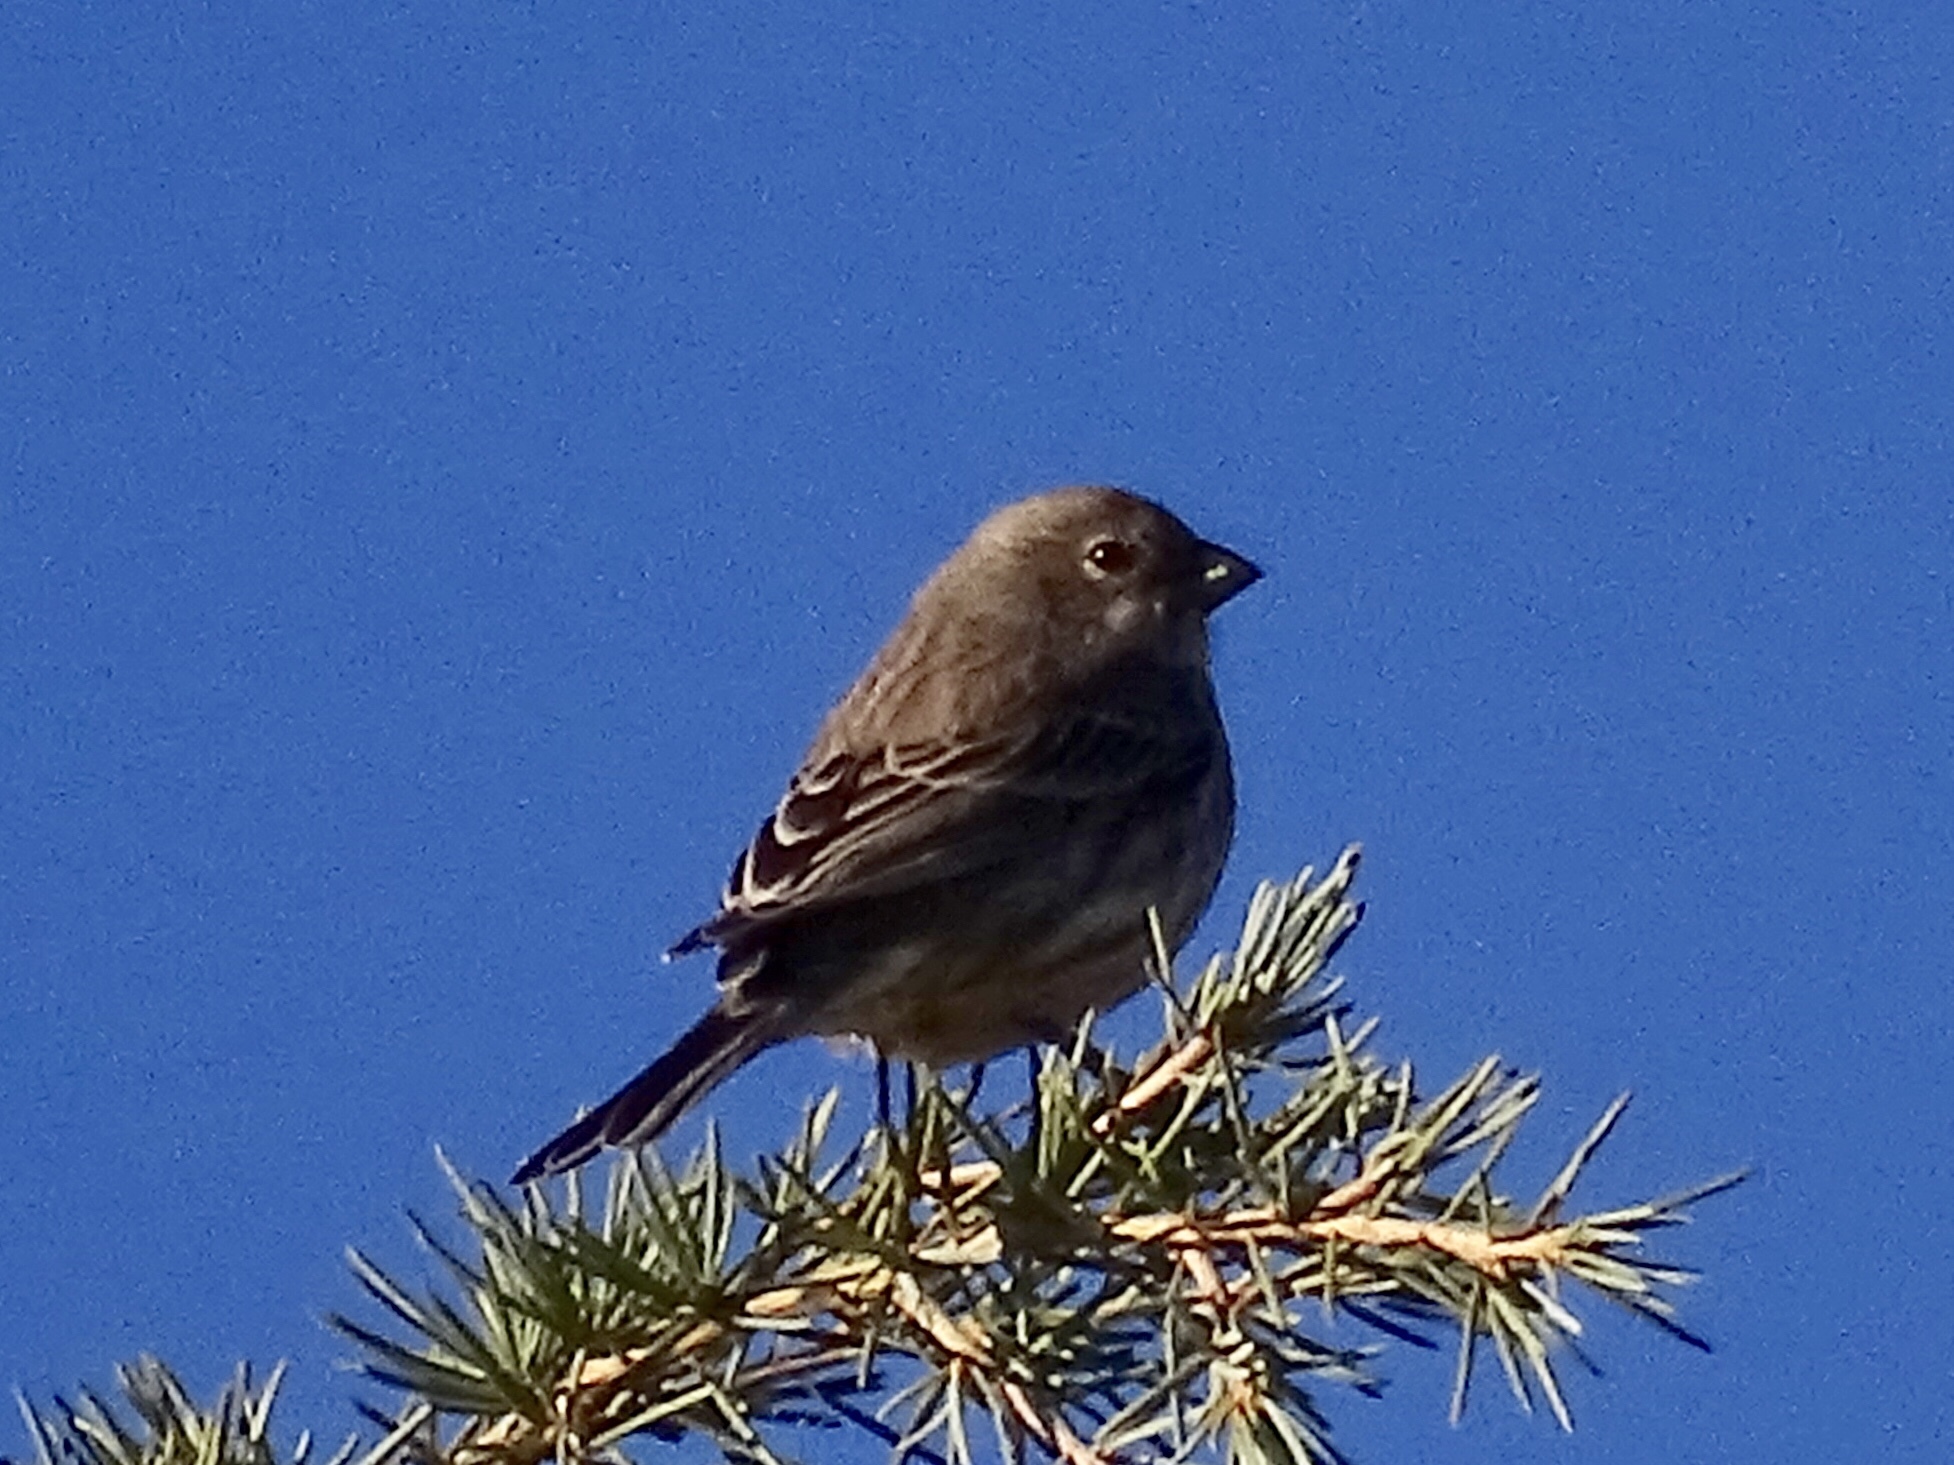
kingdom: Animalia
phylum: Chordata
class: Aves
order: Passeriformes
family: Fringillidae
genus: Haemorhous
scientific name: Haemorhous mexicanus
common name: House finch
